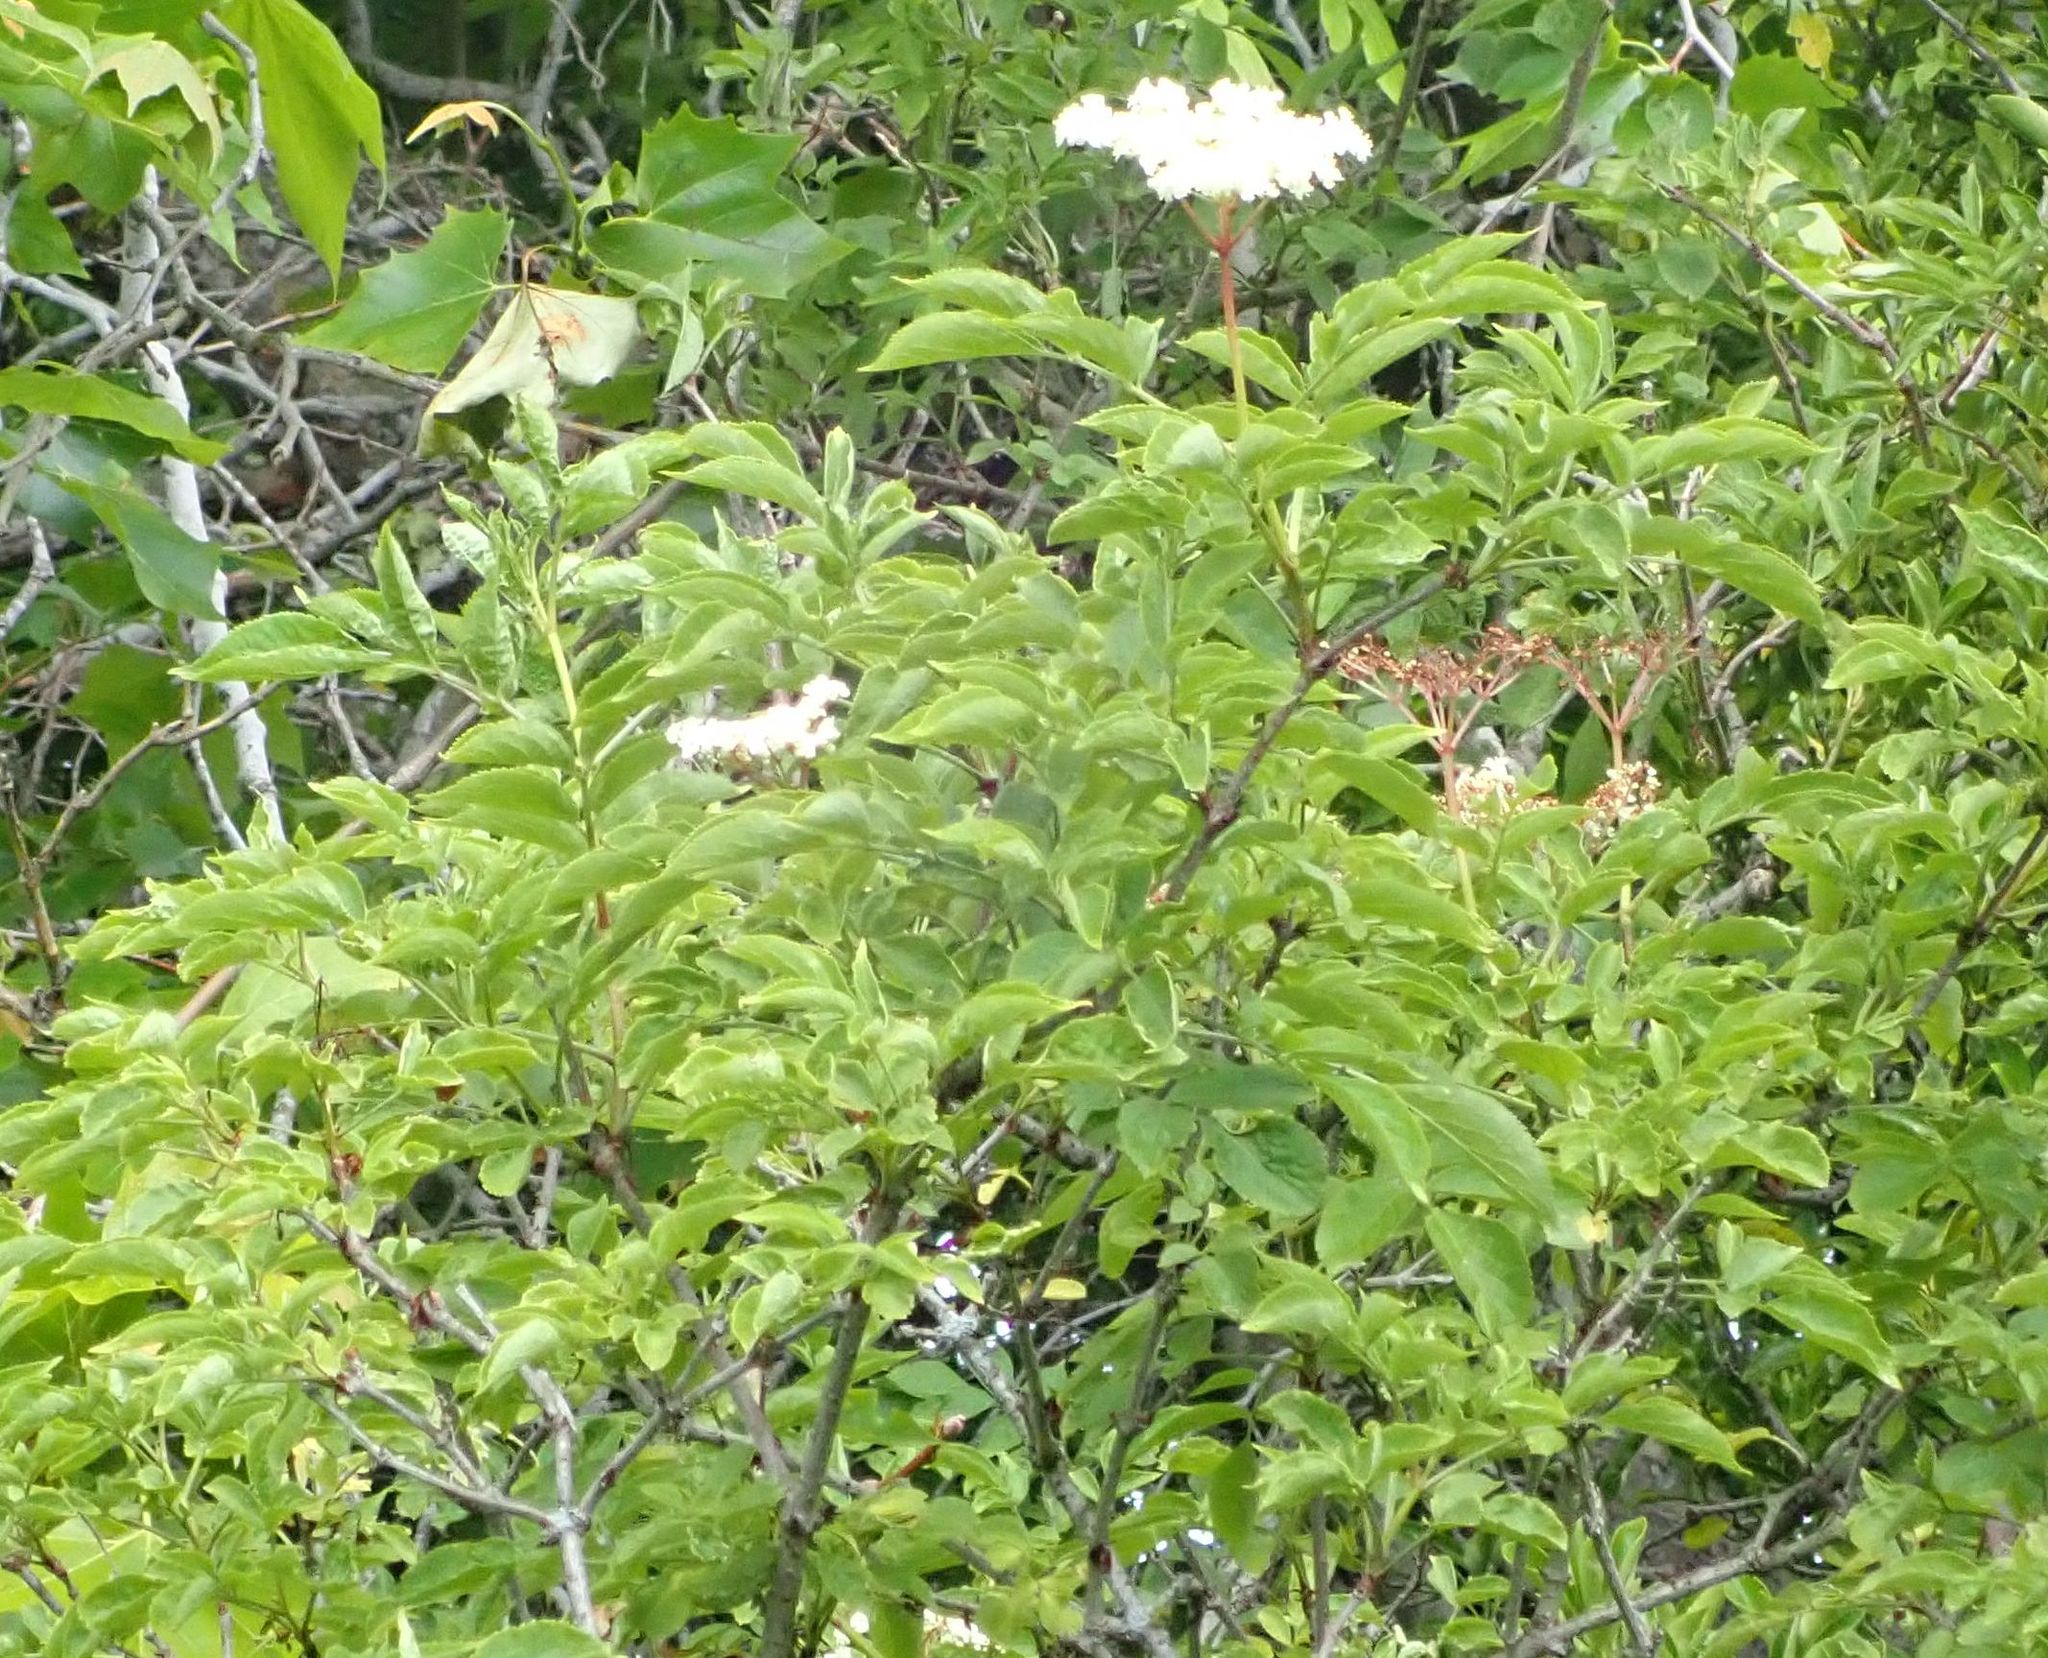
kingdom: Plantae
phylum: Tracheophyta
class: Magnoliopsida
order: Dipsacales
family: Viburnaceae
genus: Sambucus
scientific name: Sambucus nigra
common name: Elder
